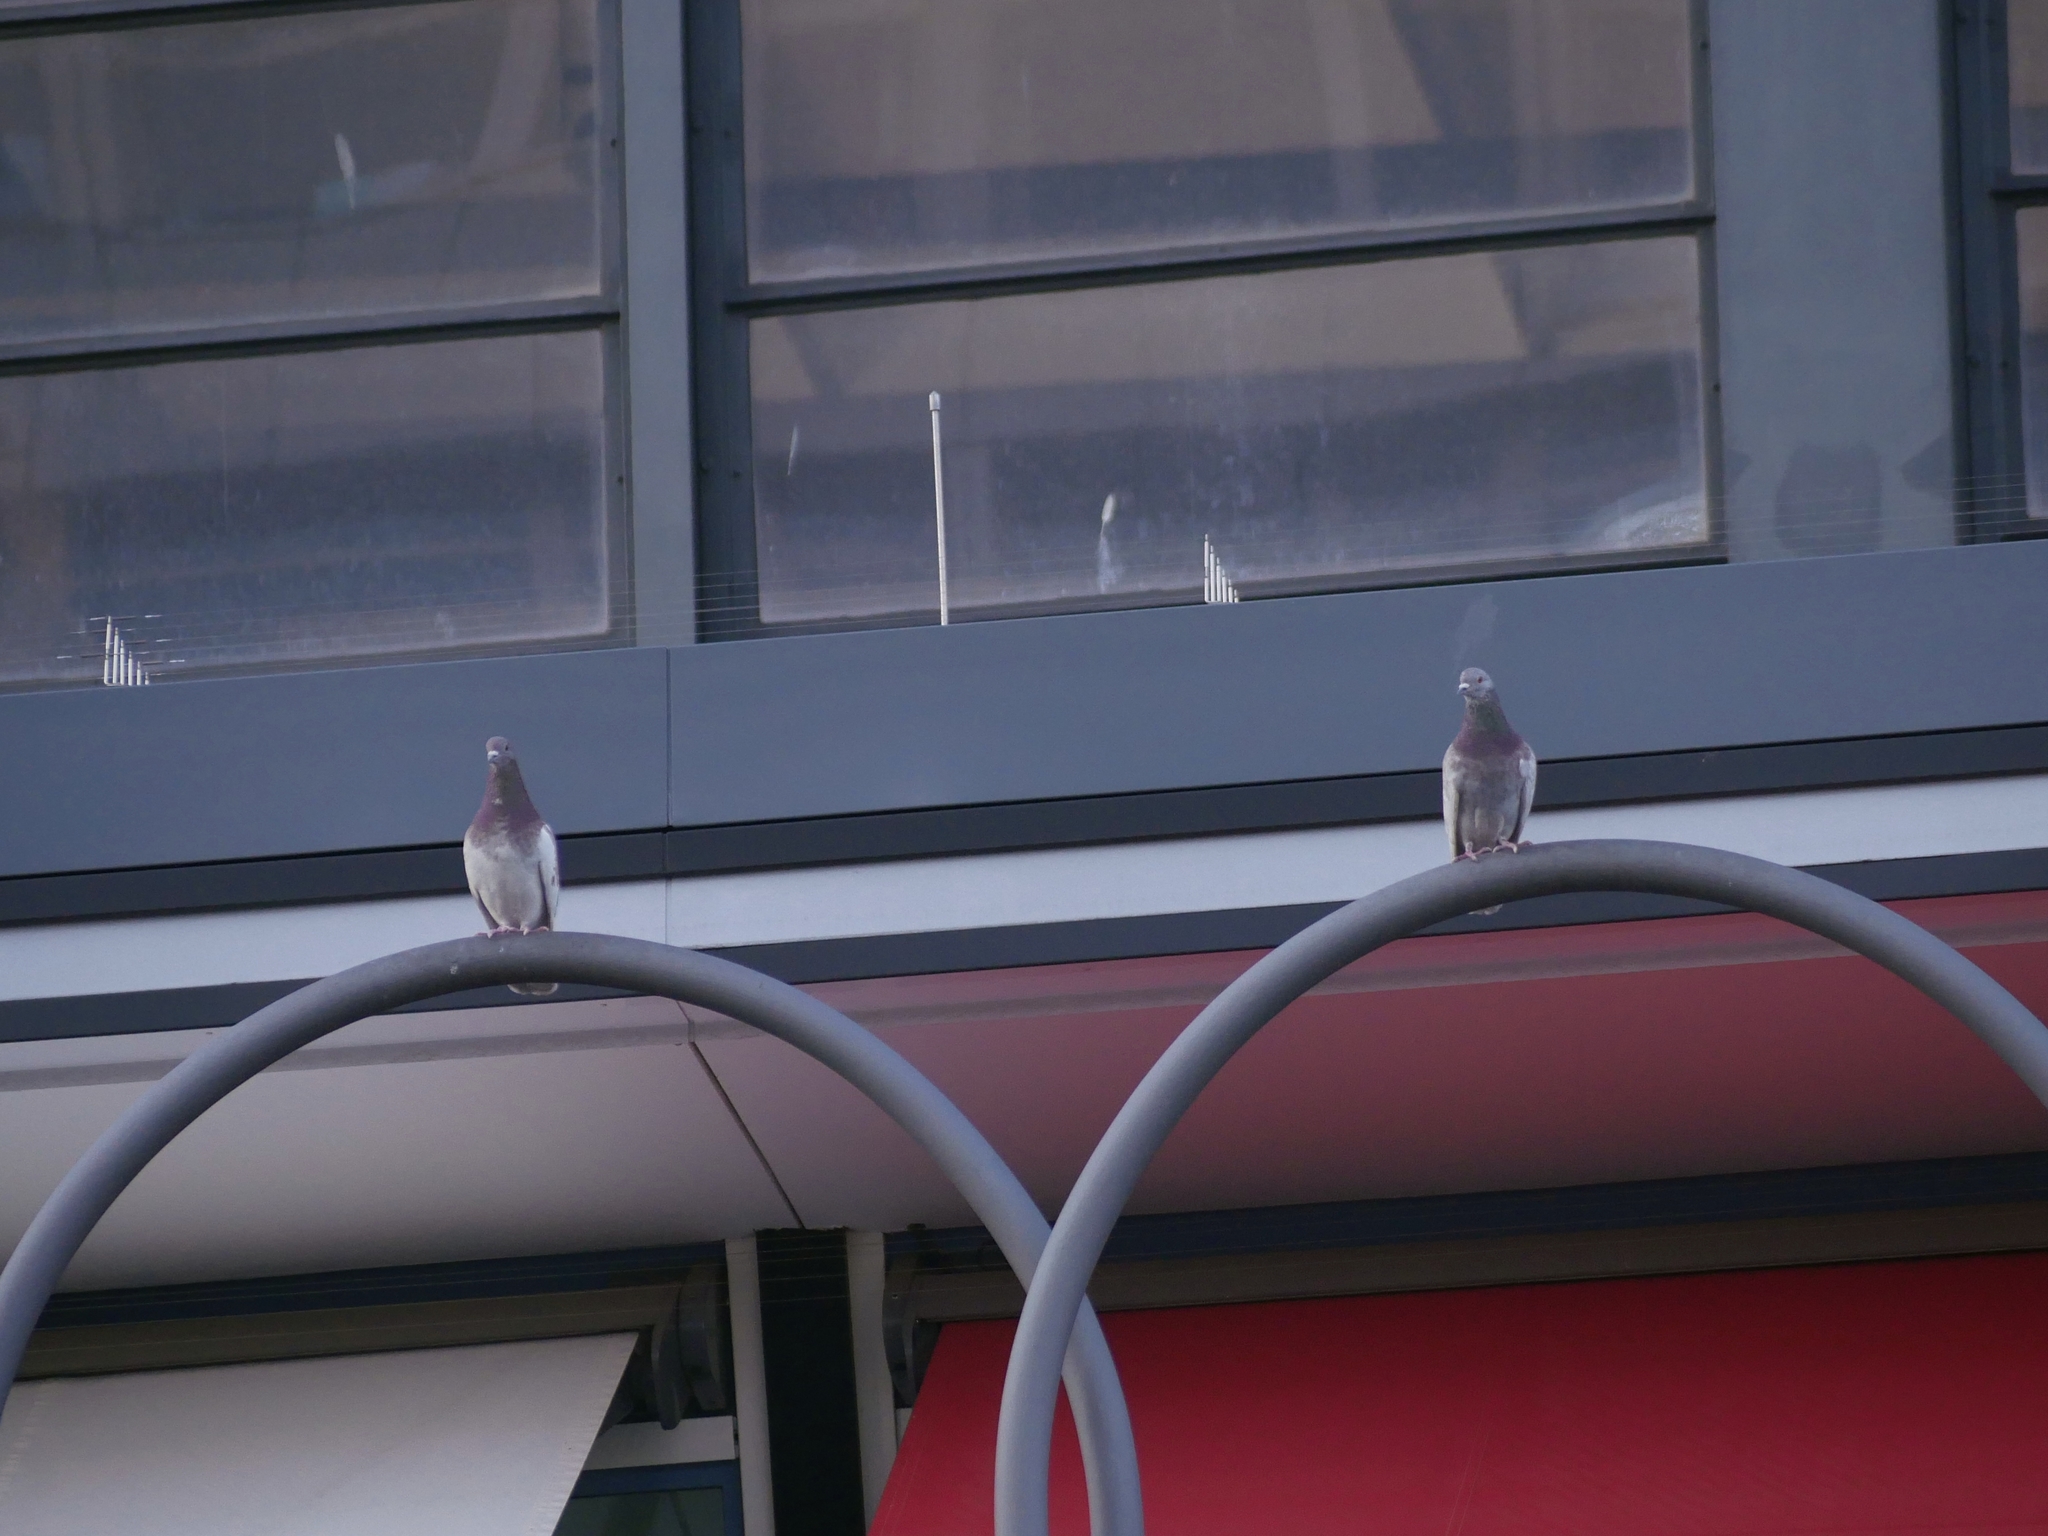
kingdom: Animalia
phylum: Chordata
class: Aves
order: Columbiformes
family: Columbidae
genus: Columba
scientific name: Columba livia
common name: Rock pigeon
